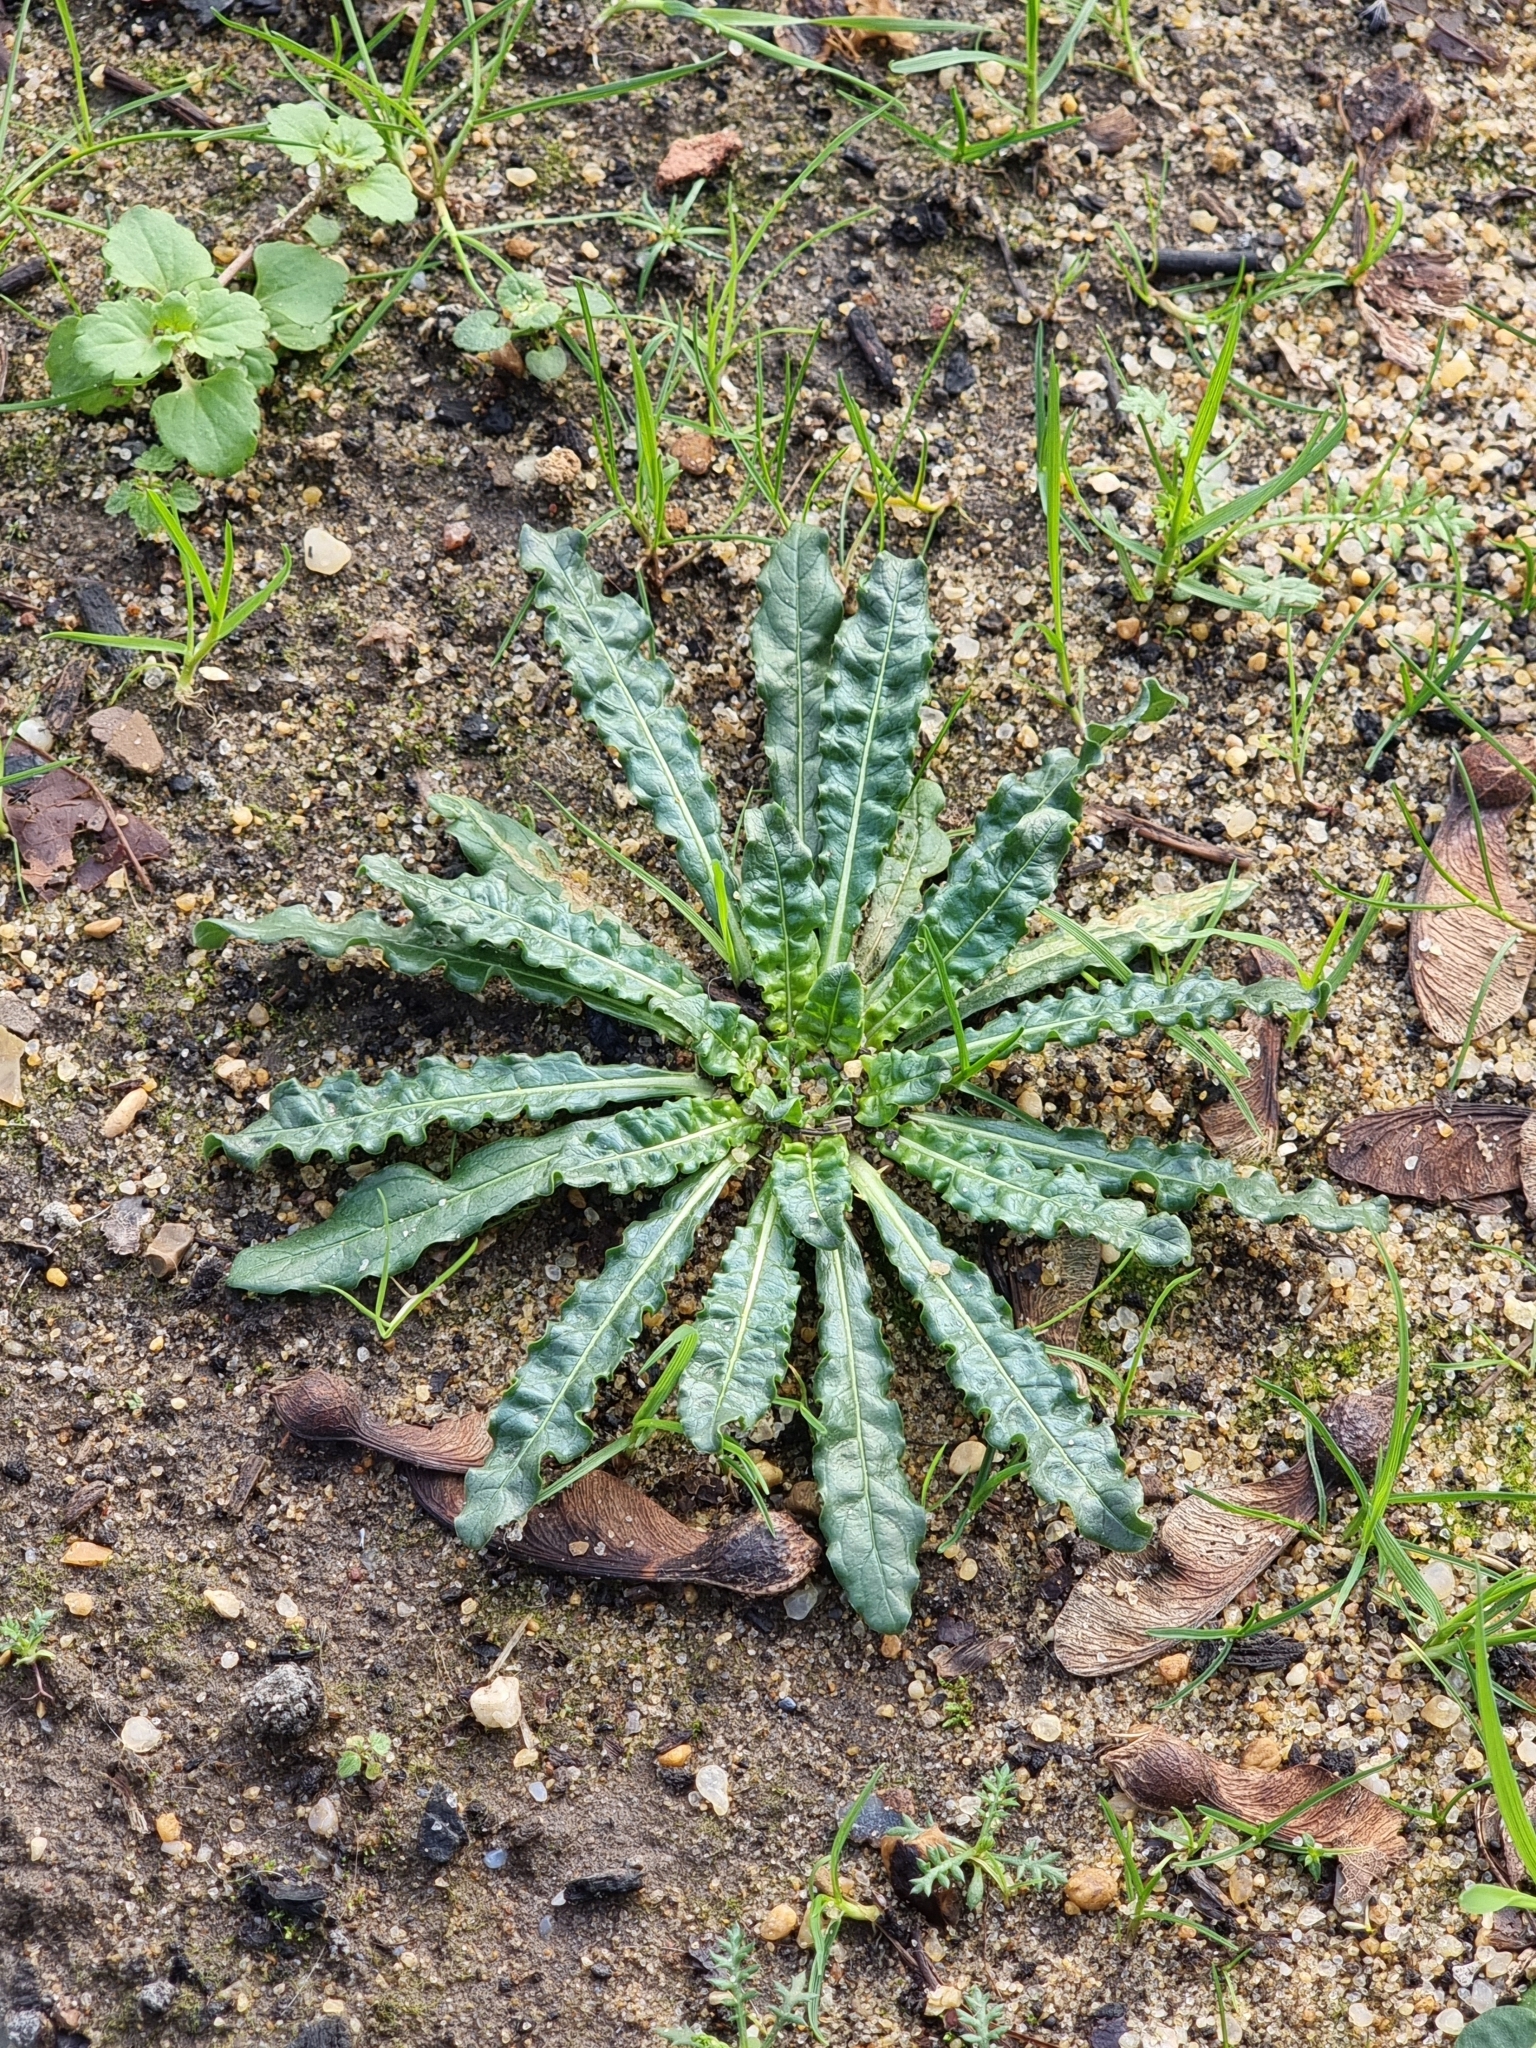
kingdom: Plantae
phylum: Tracheophyta
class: Magnoliopsida
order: Brassicales
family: Resedaceae
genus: Reseda
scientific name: Reseda luteola
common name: Weld
